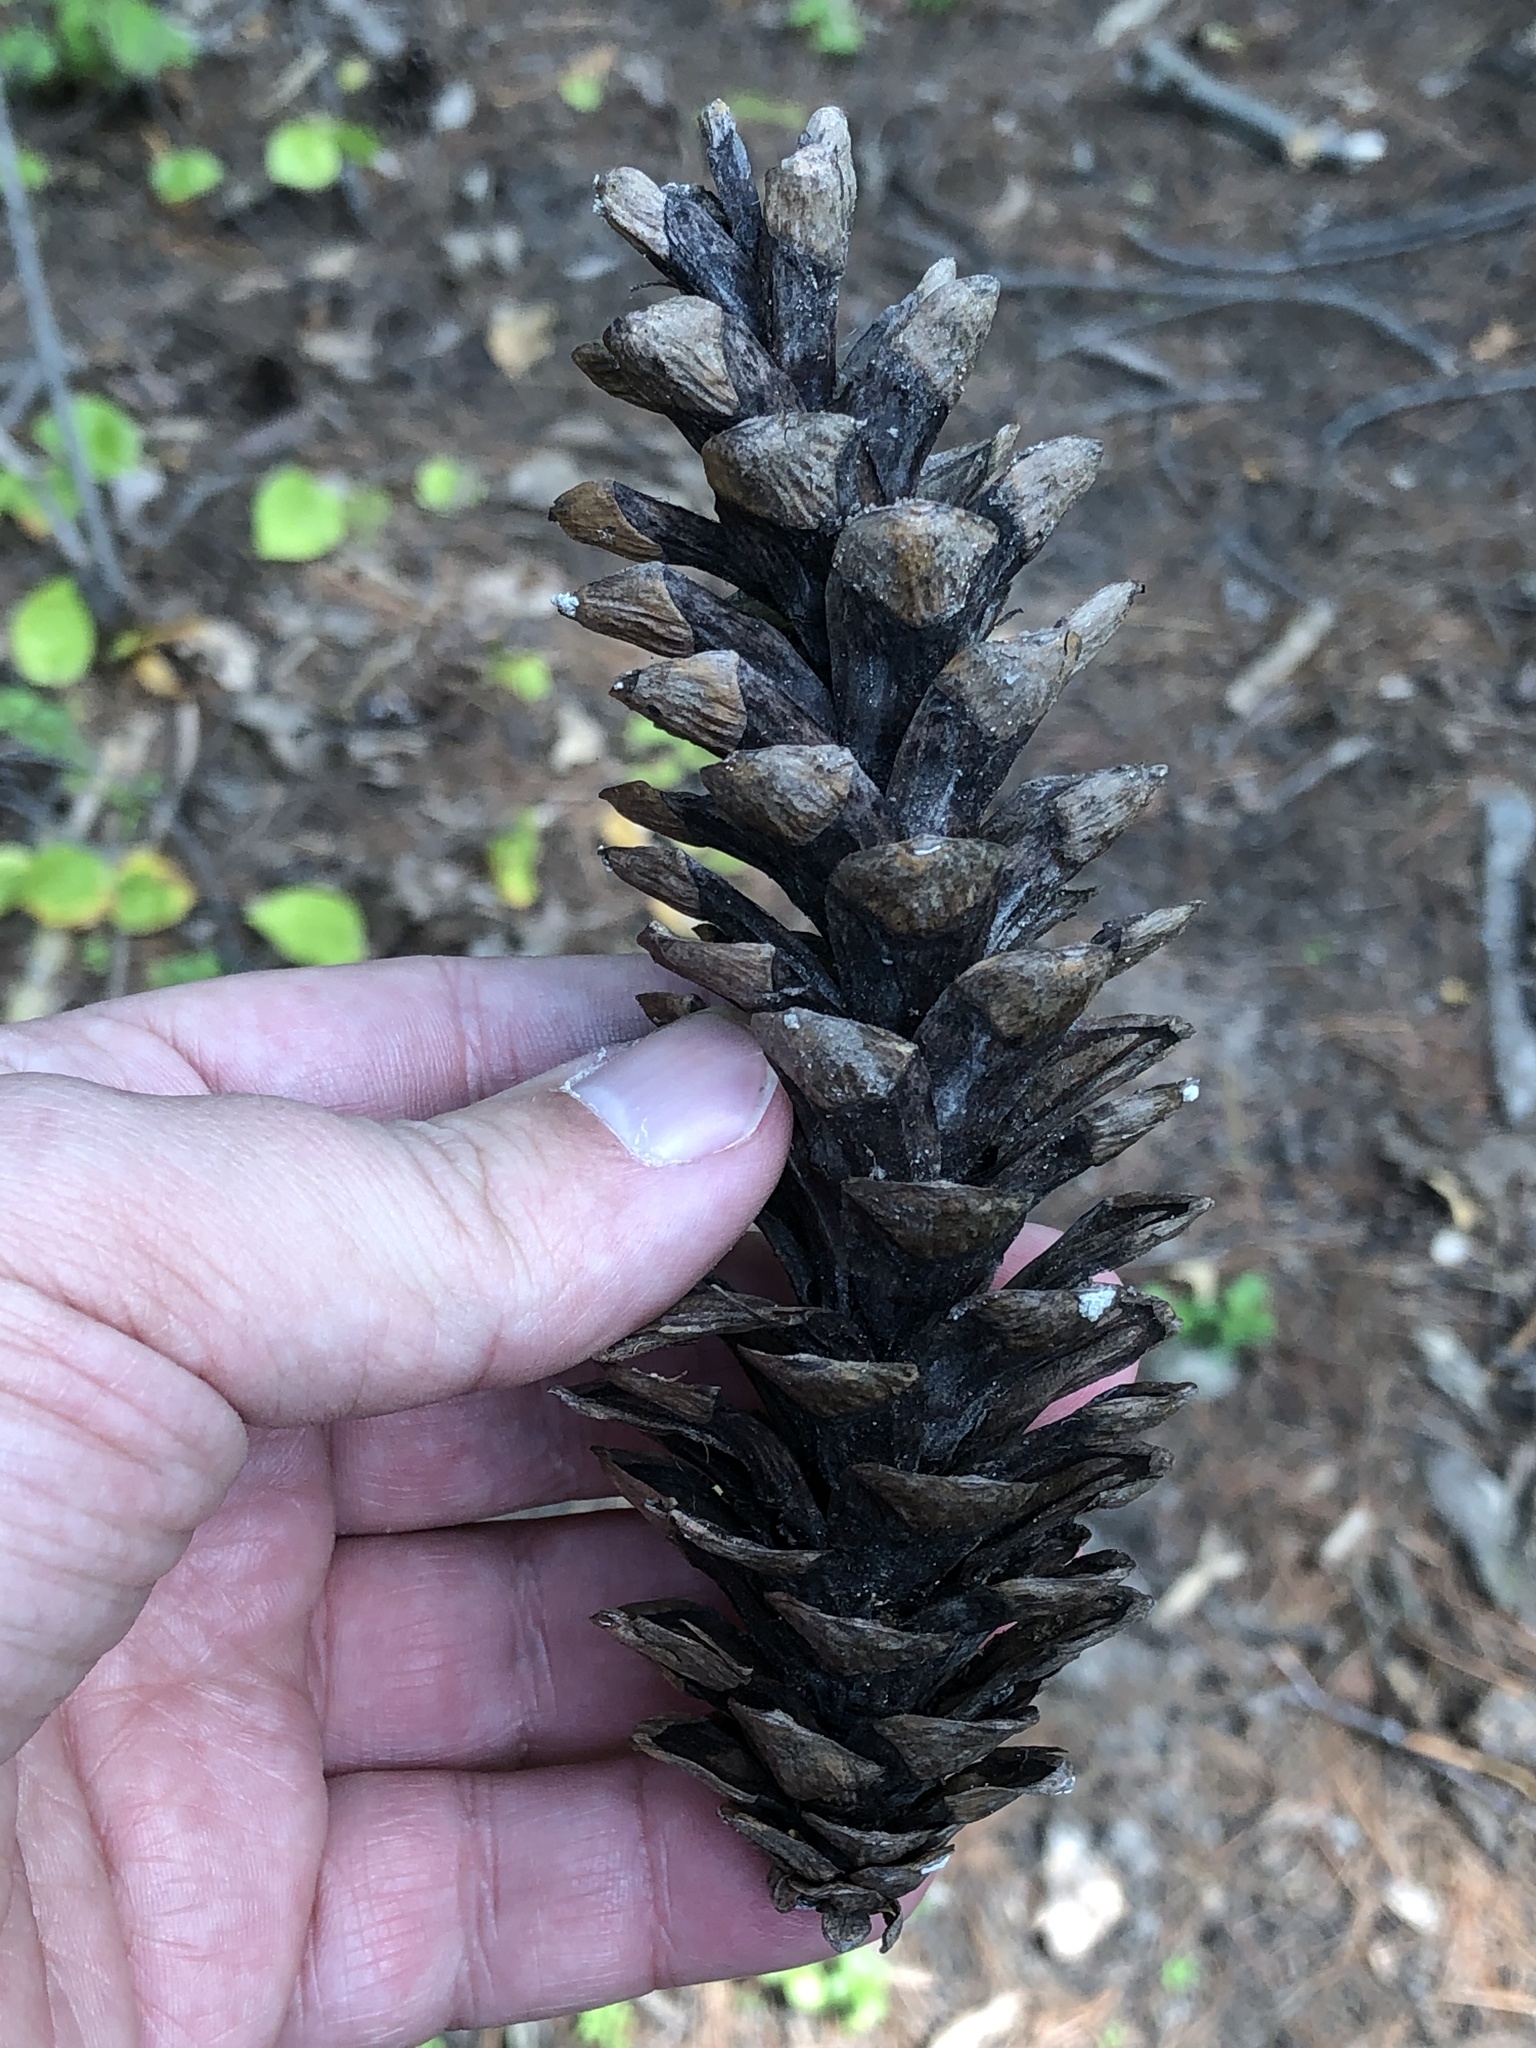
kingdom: Plantae
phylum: Tracheophyta
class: Pinopsida
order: Pinales
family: Pinaceae
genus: Pinus
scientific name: Pinus strobus
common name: Weymouth pine
